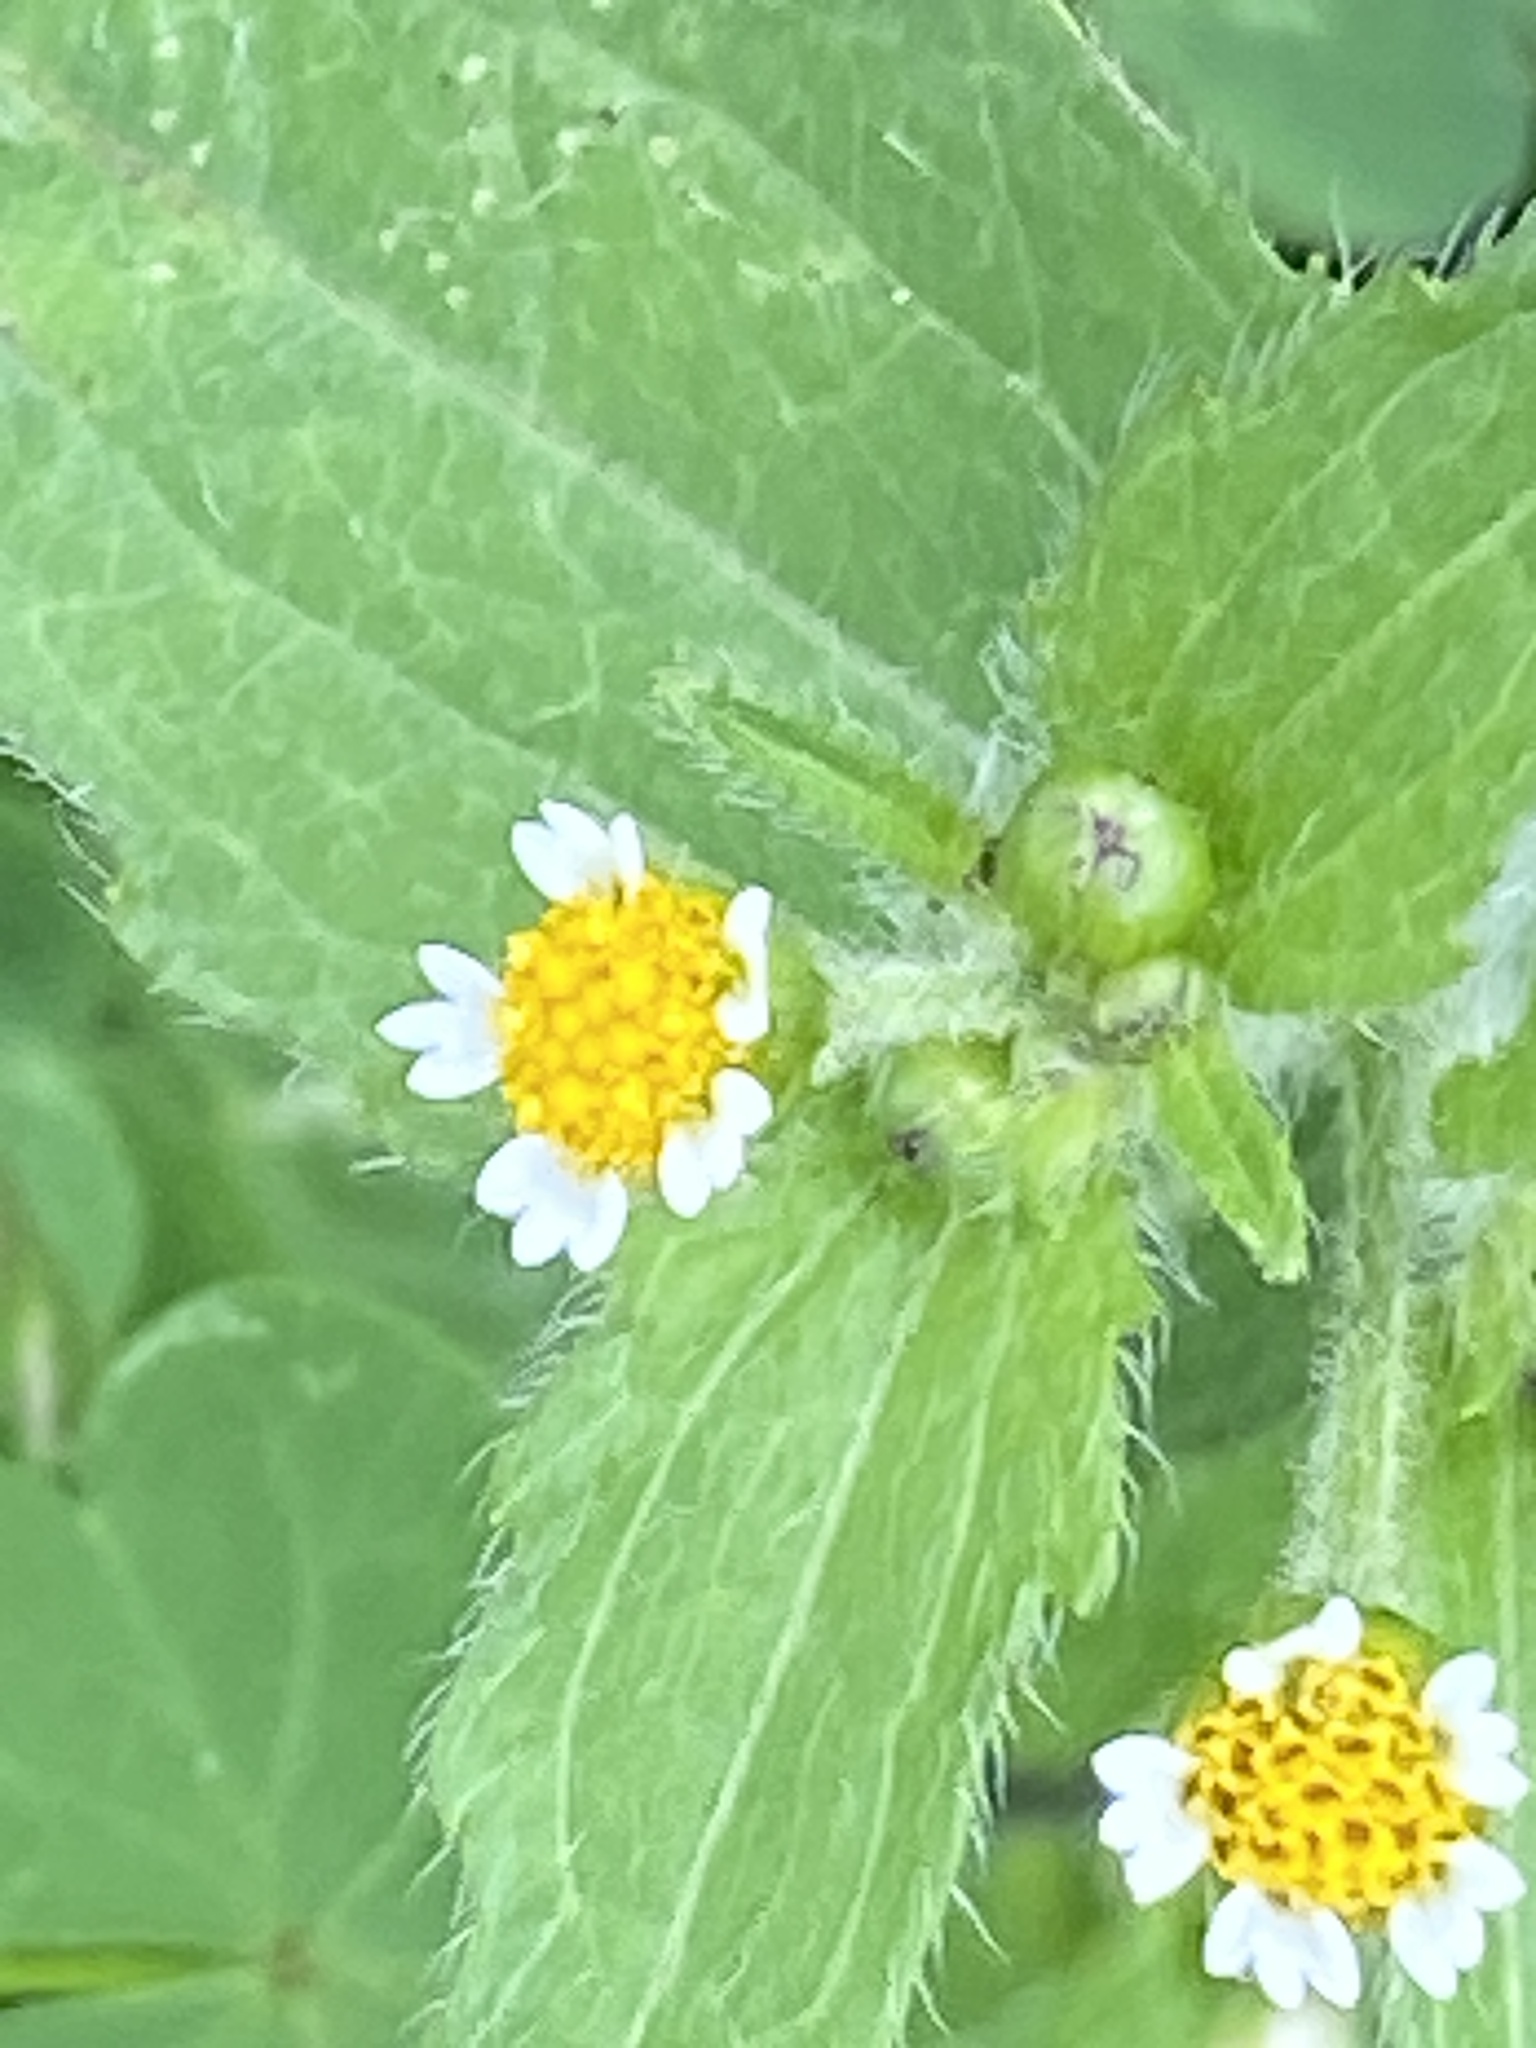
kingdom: Plantae
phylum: Tracheophyta
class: Magnoliopsida
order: Asterales
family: Asteraceae
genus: Galinsoga
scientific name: Galinsoga quadriradiata
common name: Shaggy soldier
